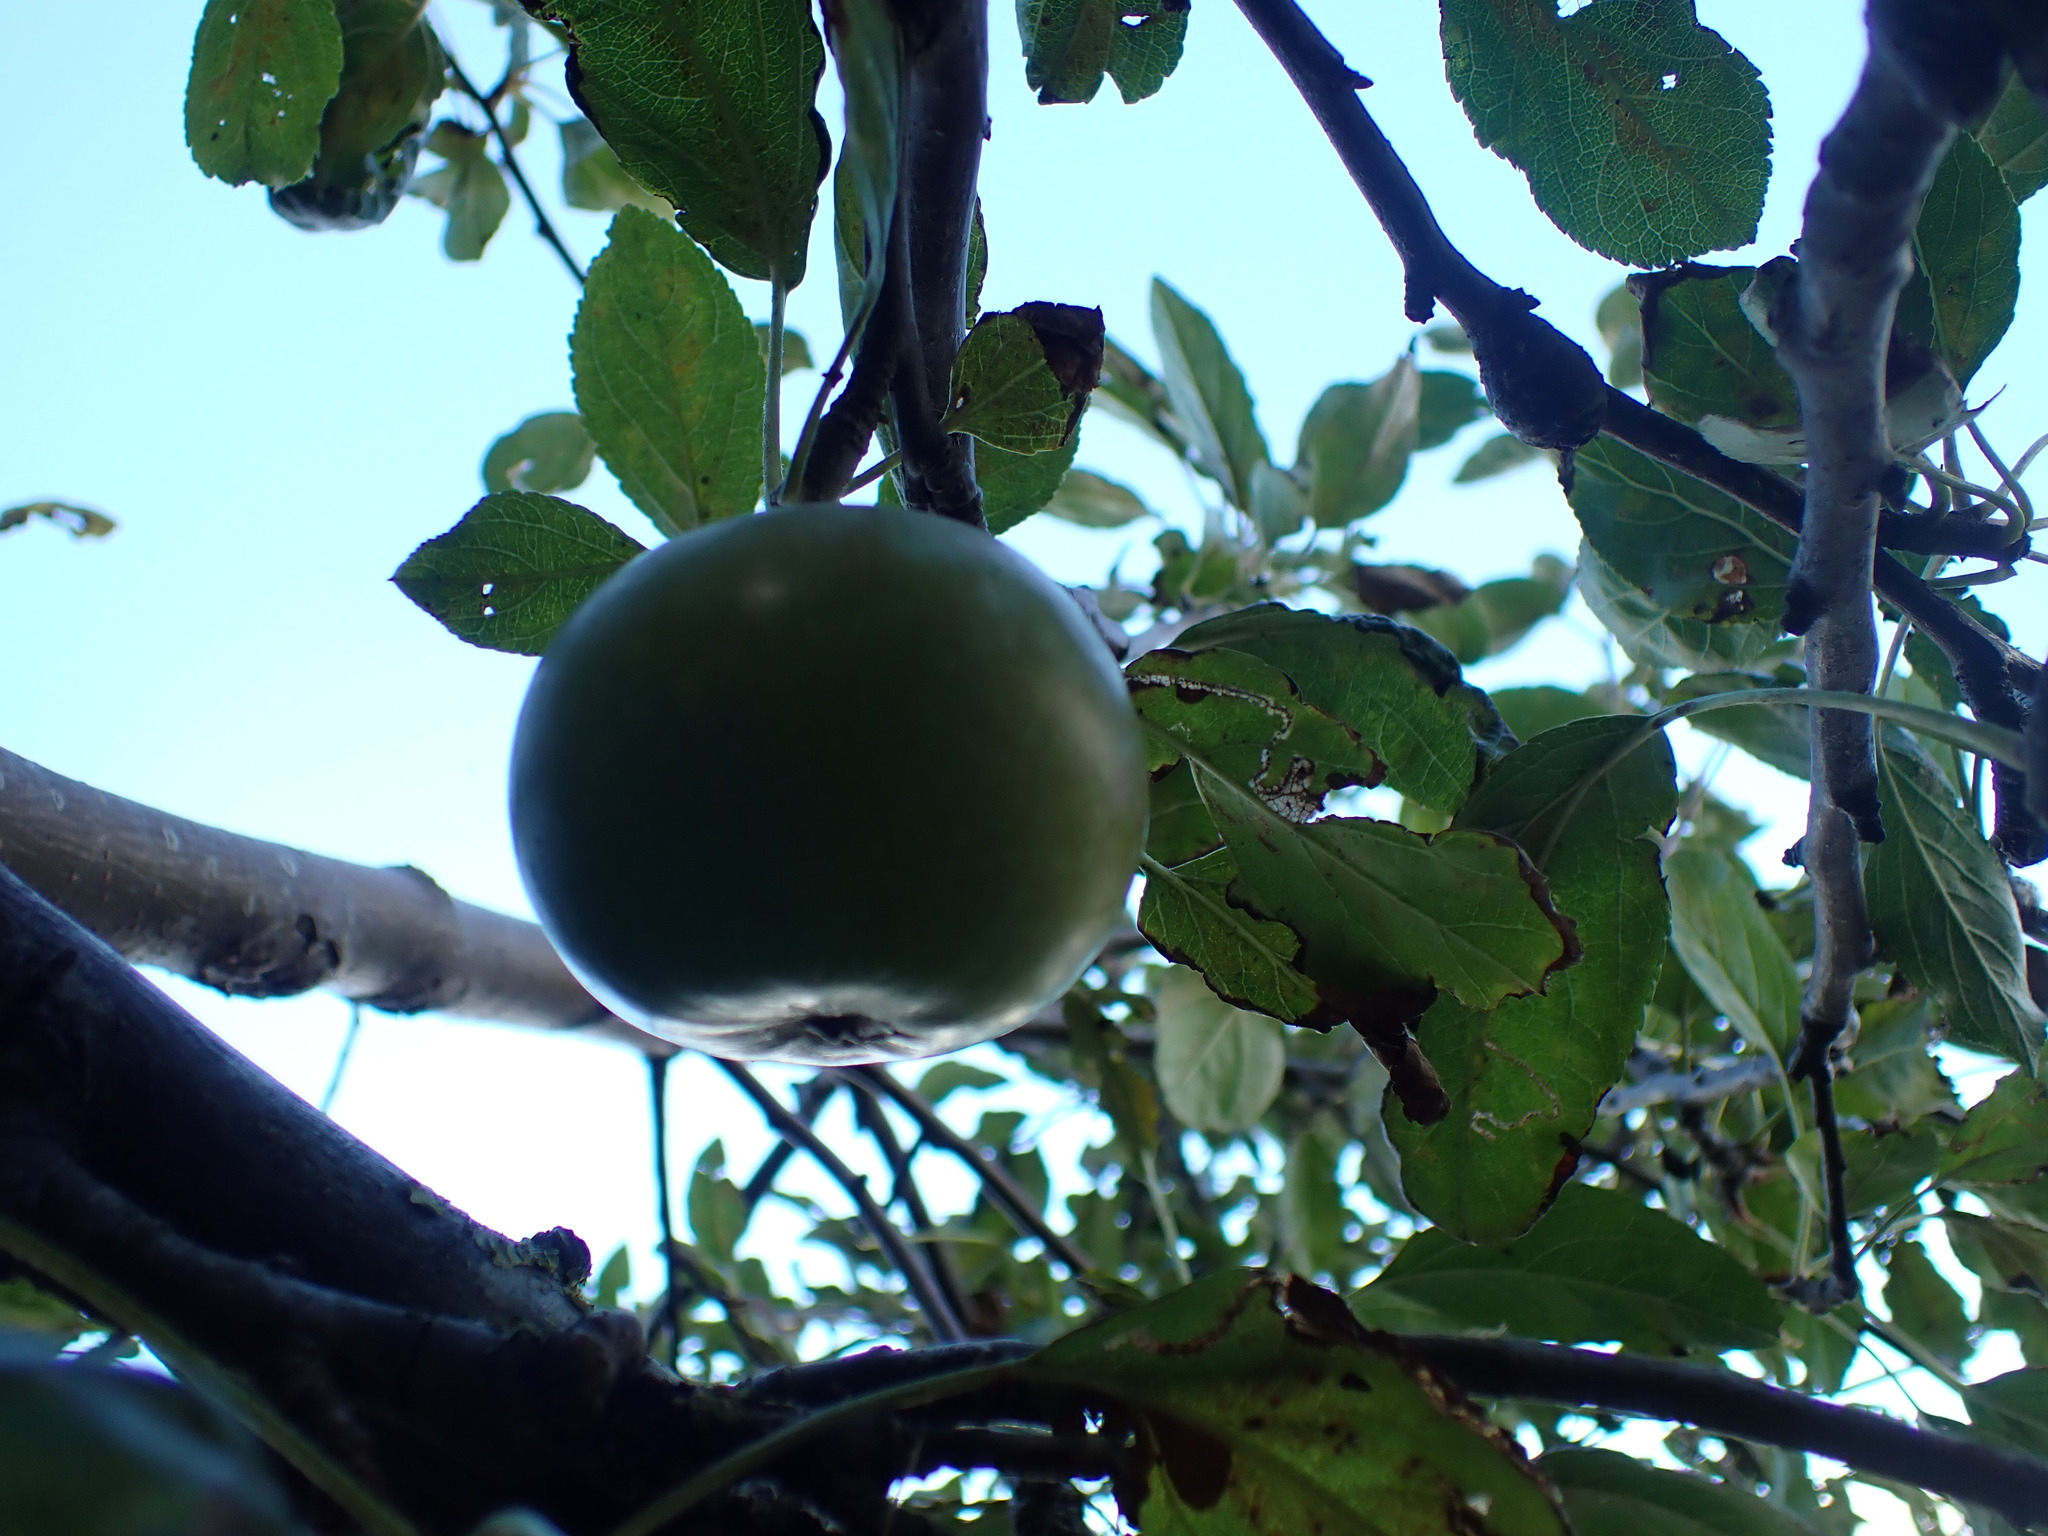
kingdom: Plantae
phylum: Tracheophyta
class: Magnoliopsida
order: Rosales
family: Rosaceae
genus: Malus
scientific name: Malus domestica
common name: Apple
